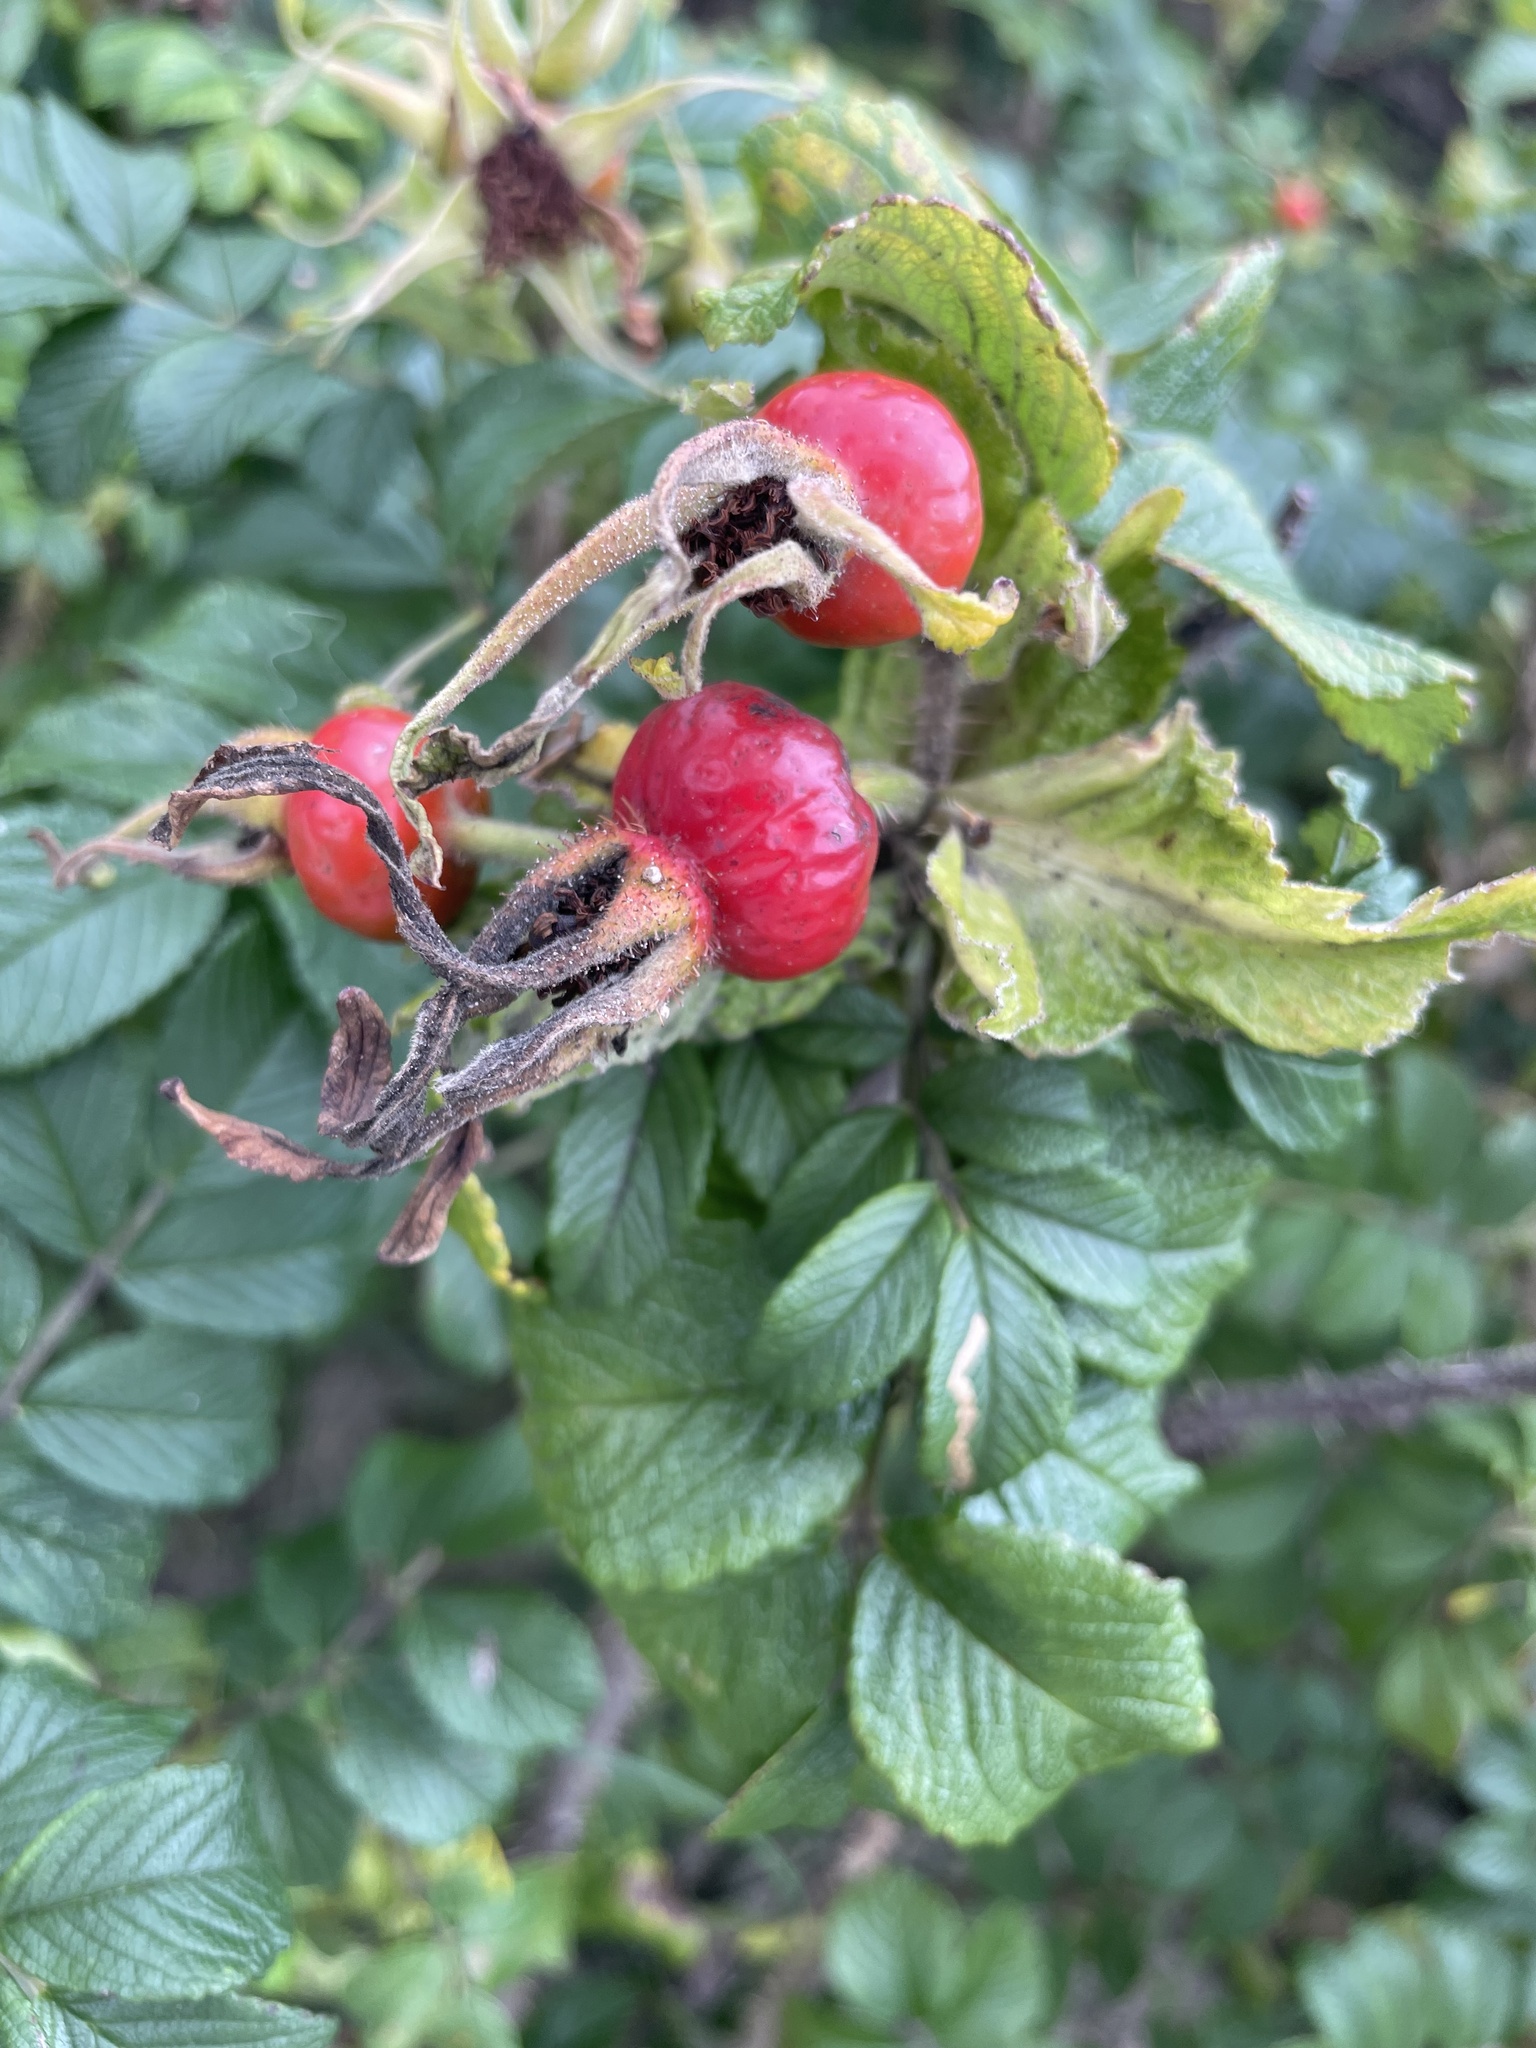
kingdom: Plantae
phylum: Tracheophyta
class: Magnoliopsida
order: Rosales
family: Rosaceae
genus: Rosa
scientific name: Rosa rugosa
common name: Japanese rose
